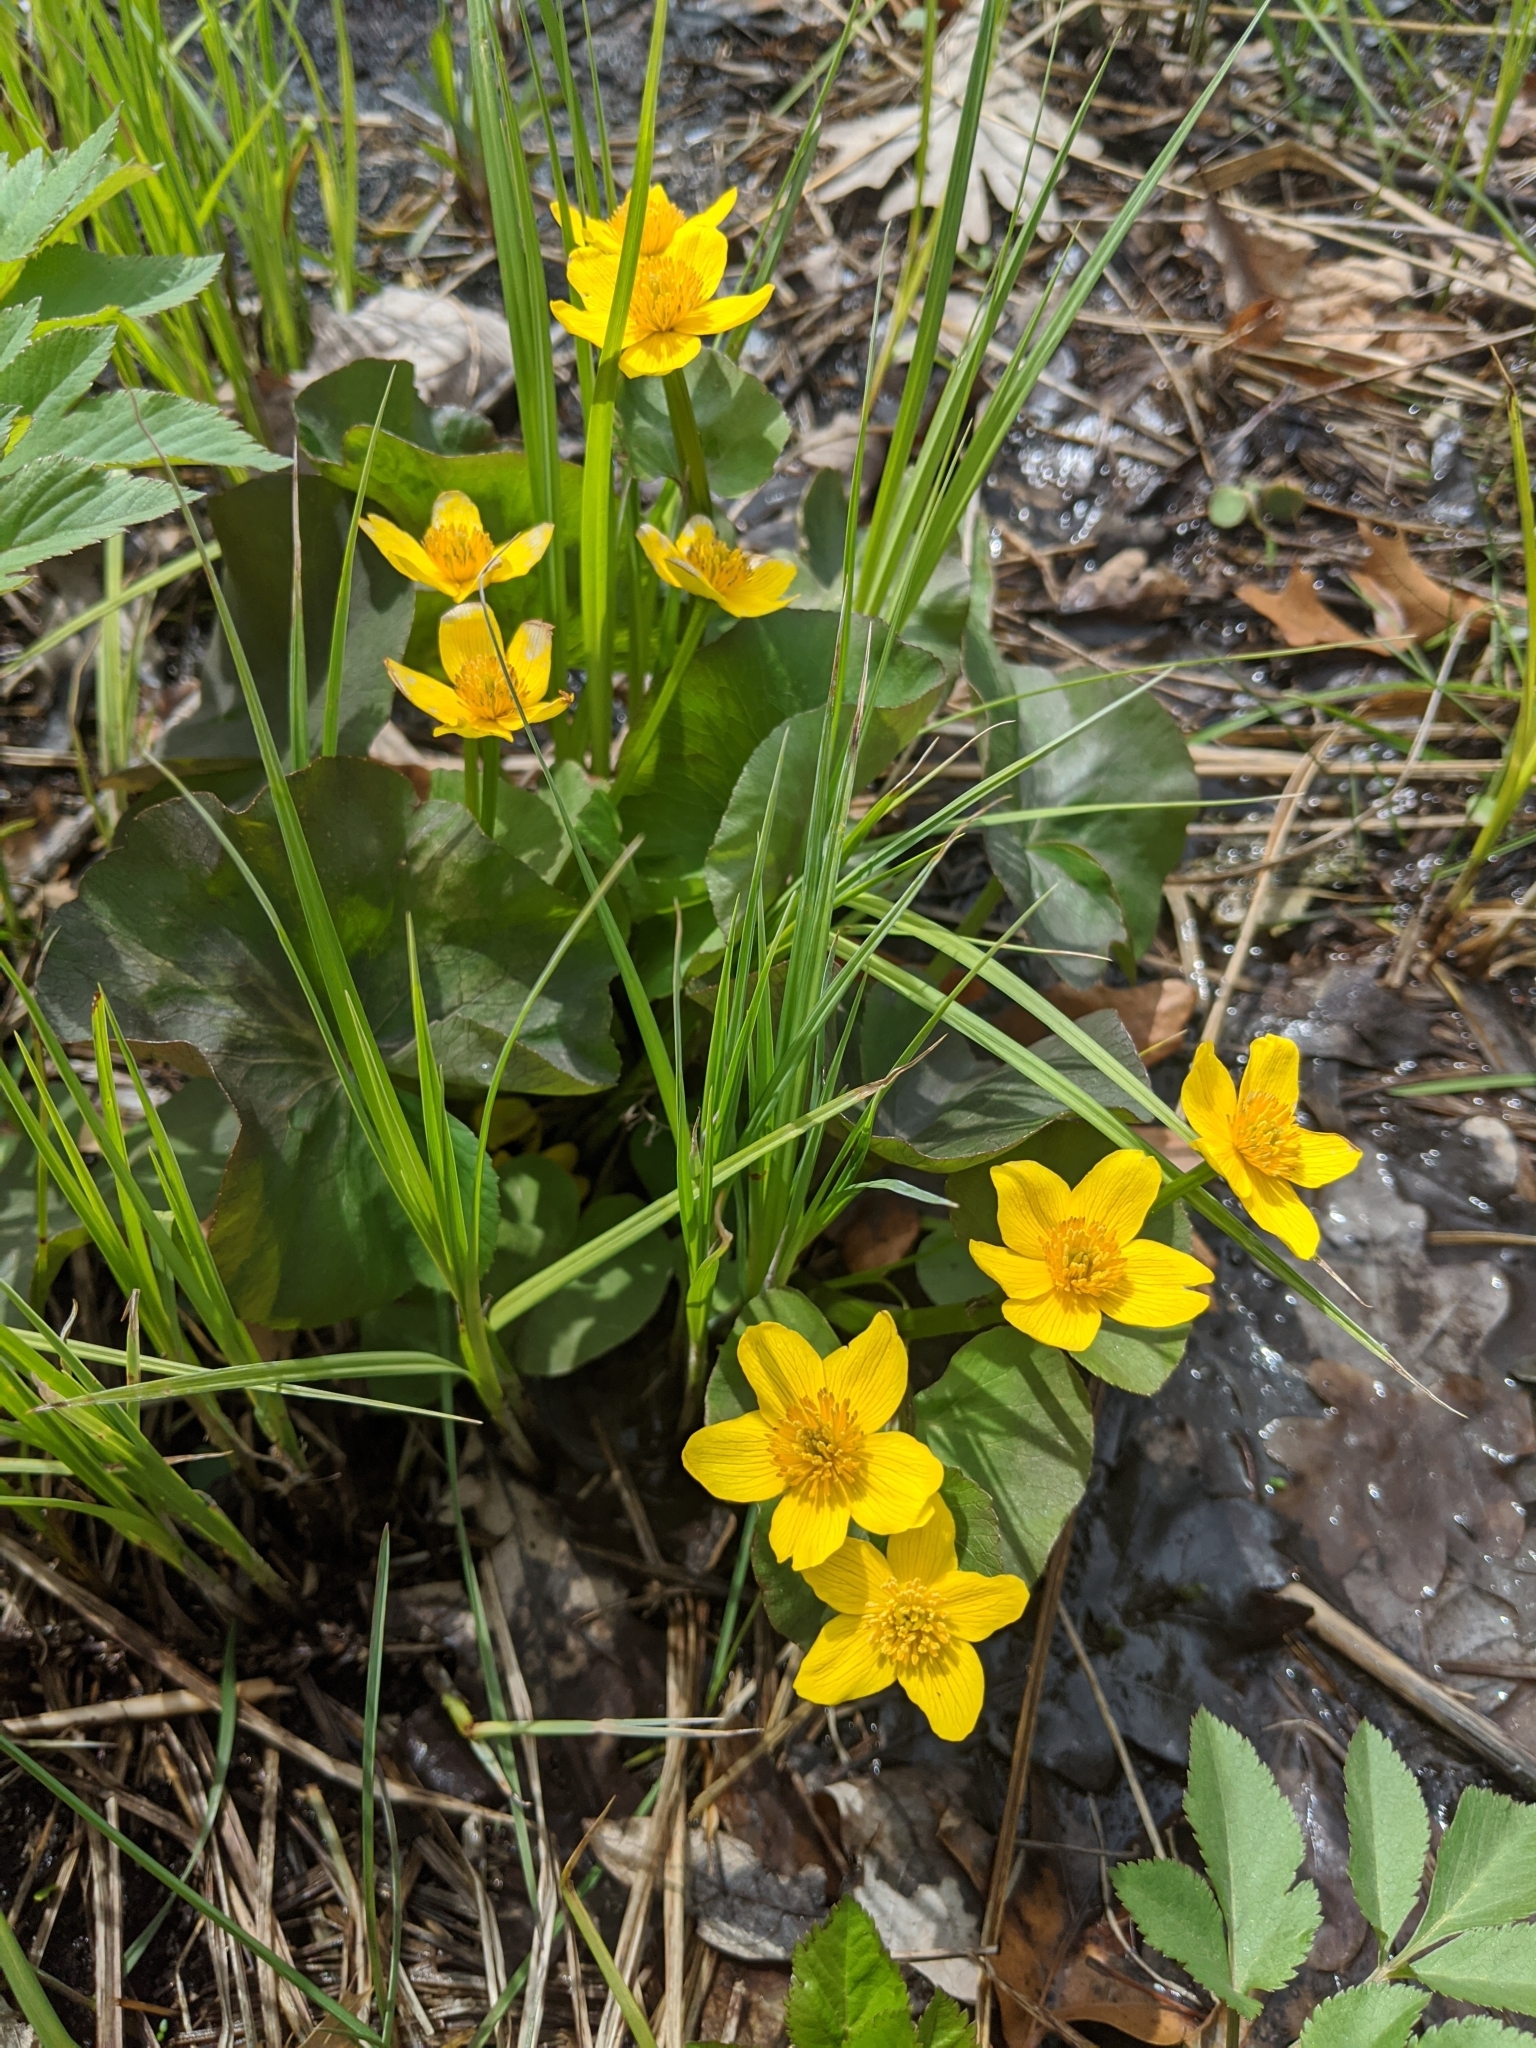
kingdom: Plantae
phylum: Tracheophyta
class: Magnoliopsida
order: Ranunculales
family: Ranunculaceae
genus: Caltha
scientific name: Caltha palustris
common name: Marsh marigold
